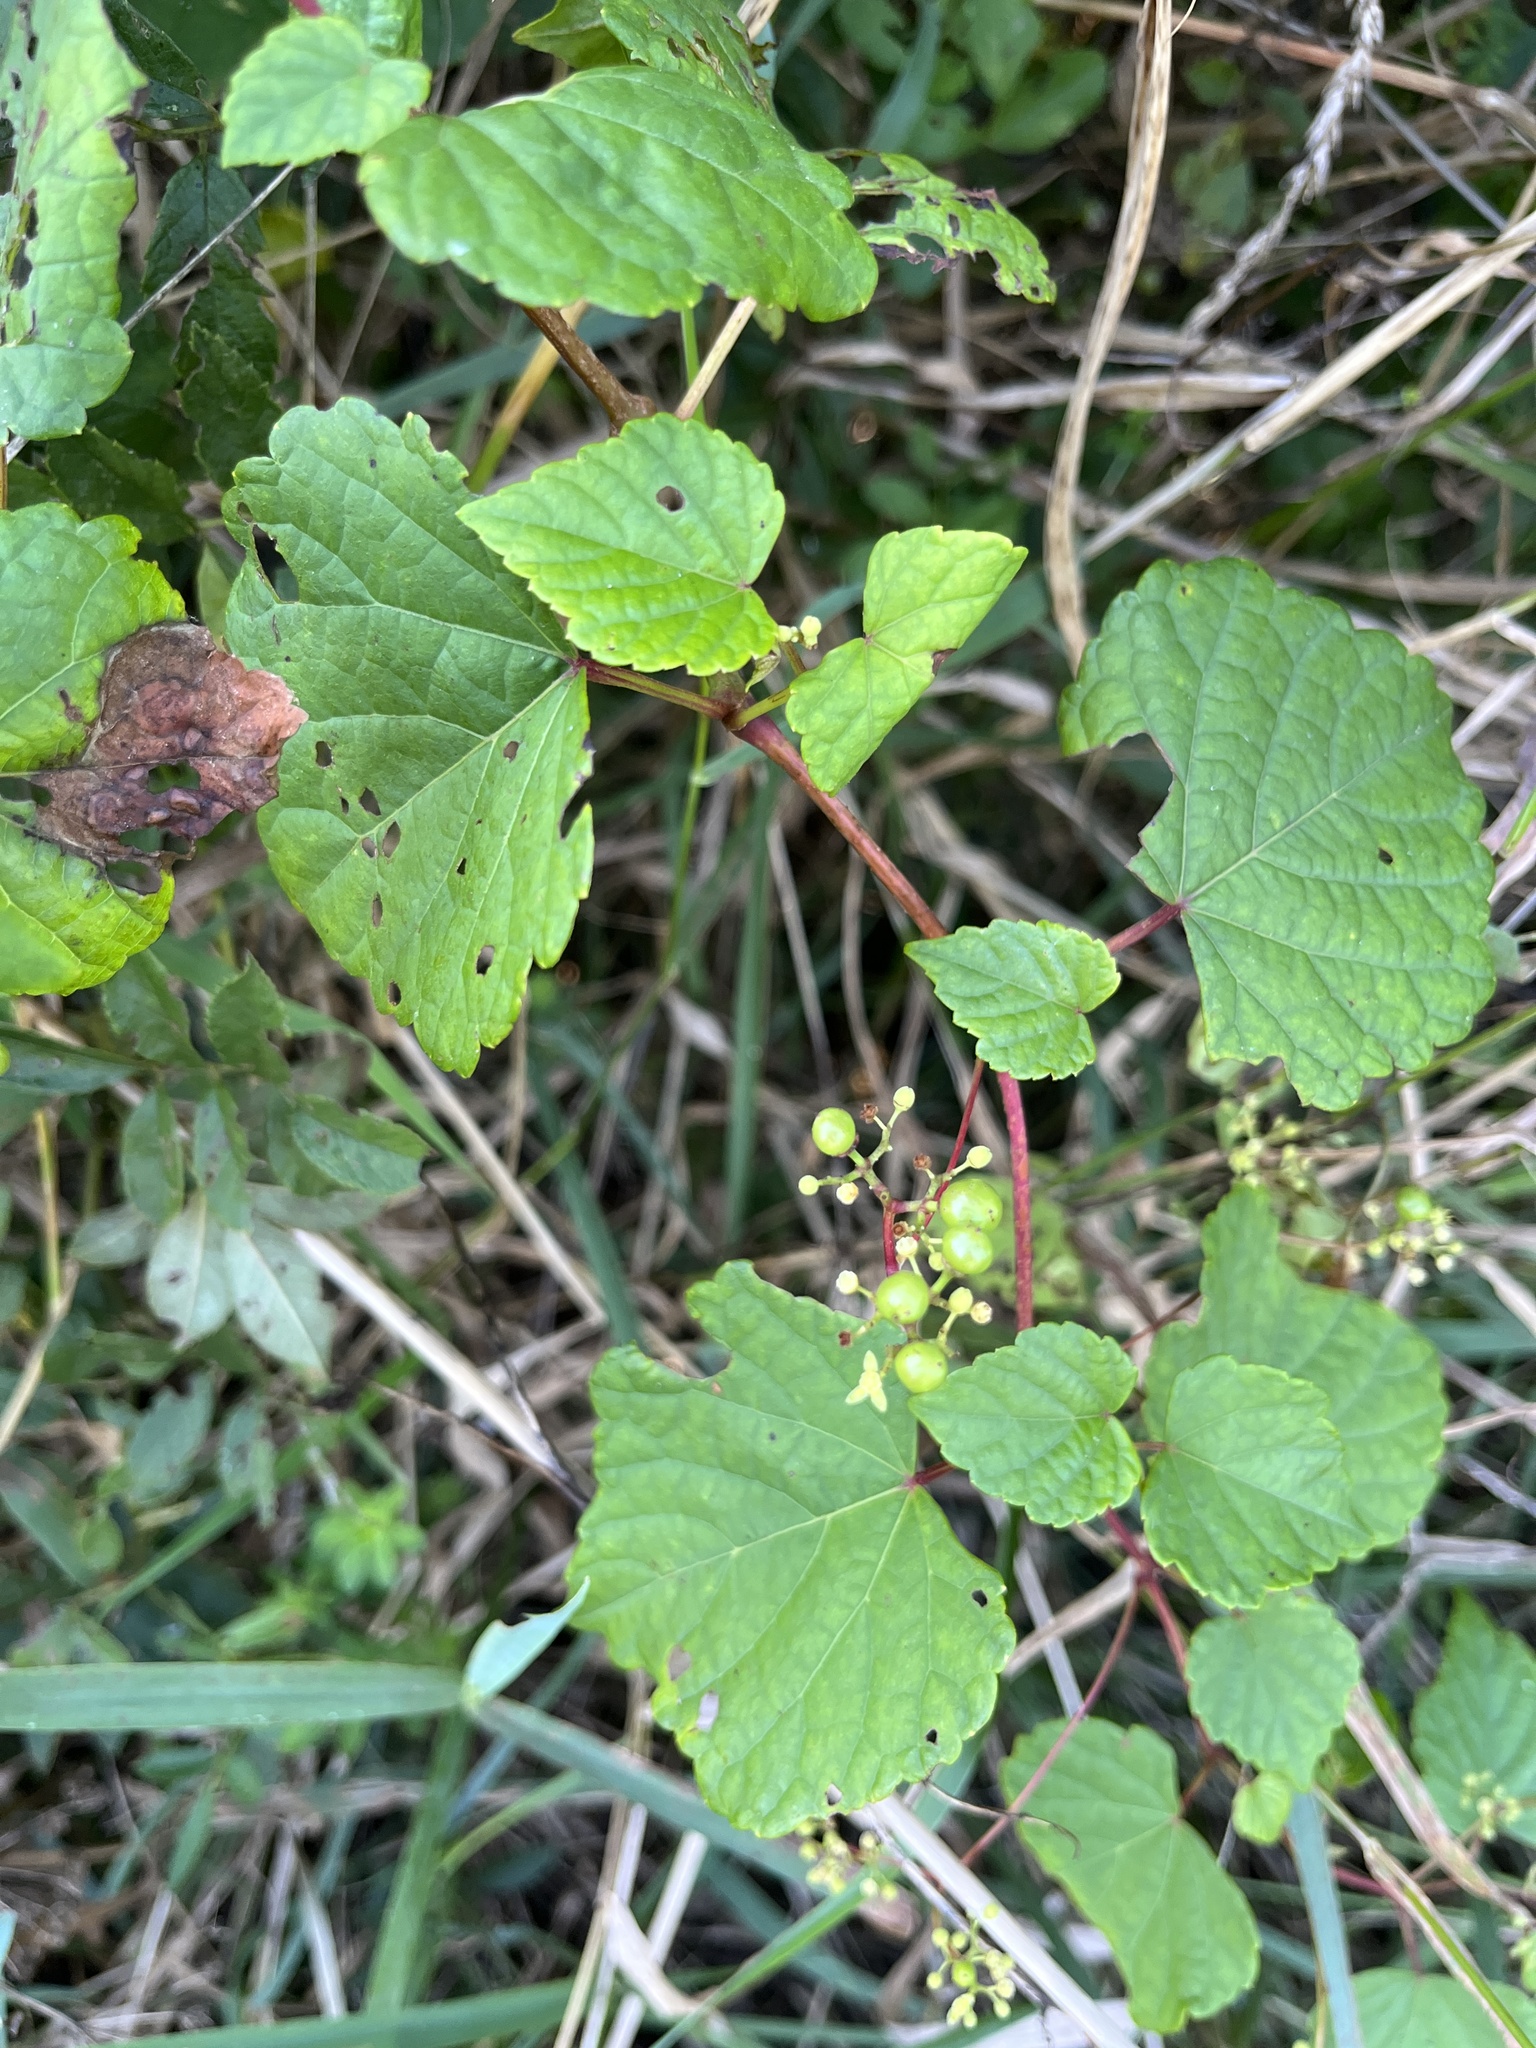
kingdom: Plantae
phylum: Tracheophyta
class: Magnoliopsida
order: Vitales
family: Vitaceae
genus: Ampelopsis
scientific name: Ampelopsis glandulosa
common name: Amur peppervine
